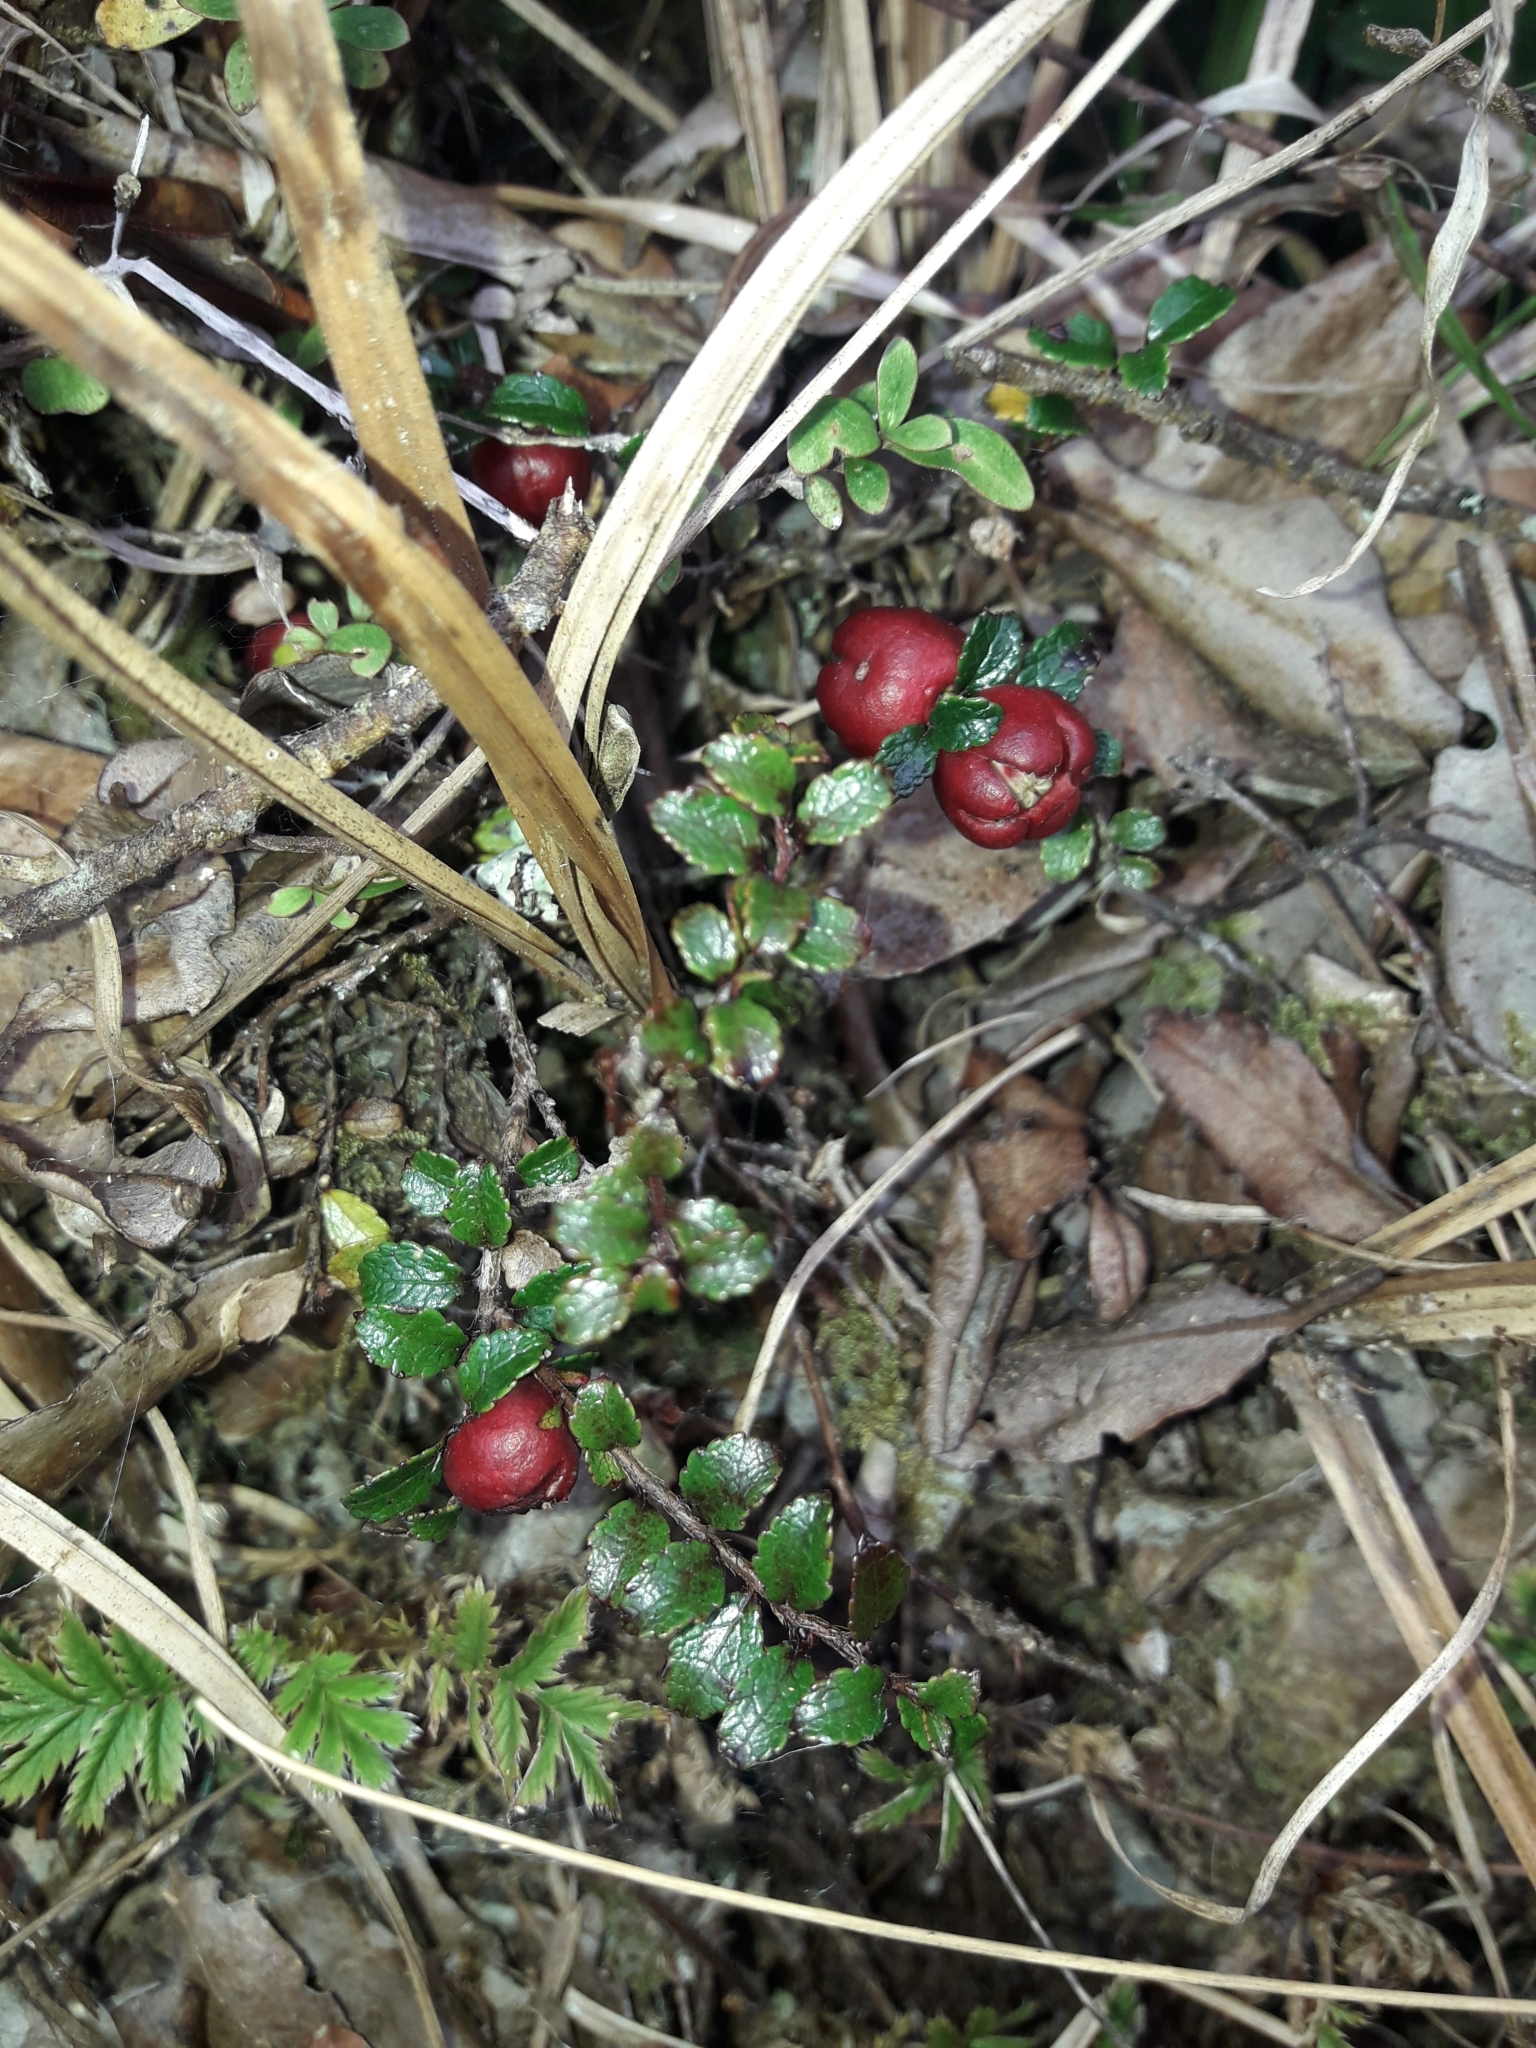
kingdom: Plantae
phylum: Tracheophyta
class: Magnoliopsida
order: Ericales
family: Ericaceae
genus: Gaultheria
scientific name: Gaultheria depressa
